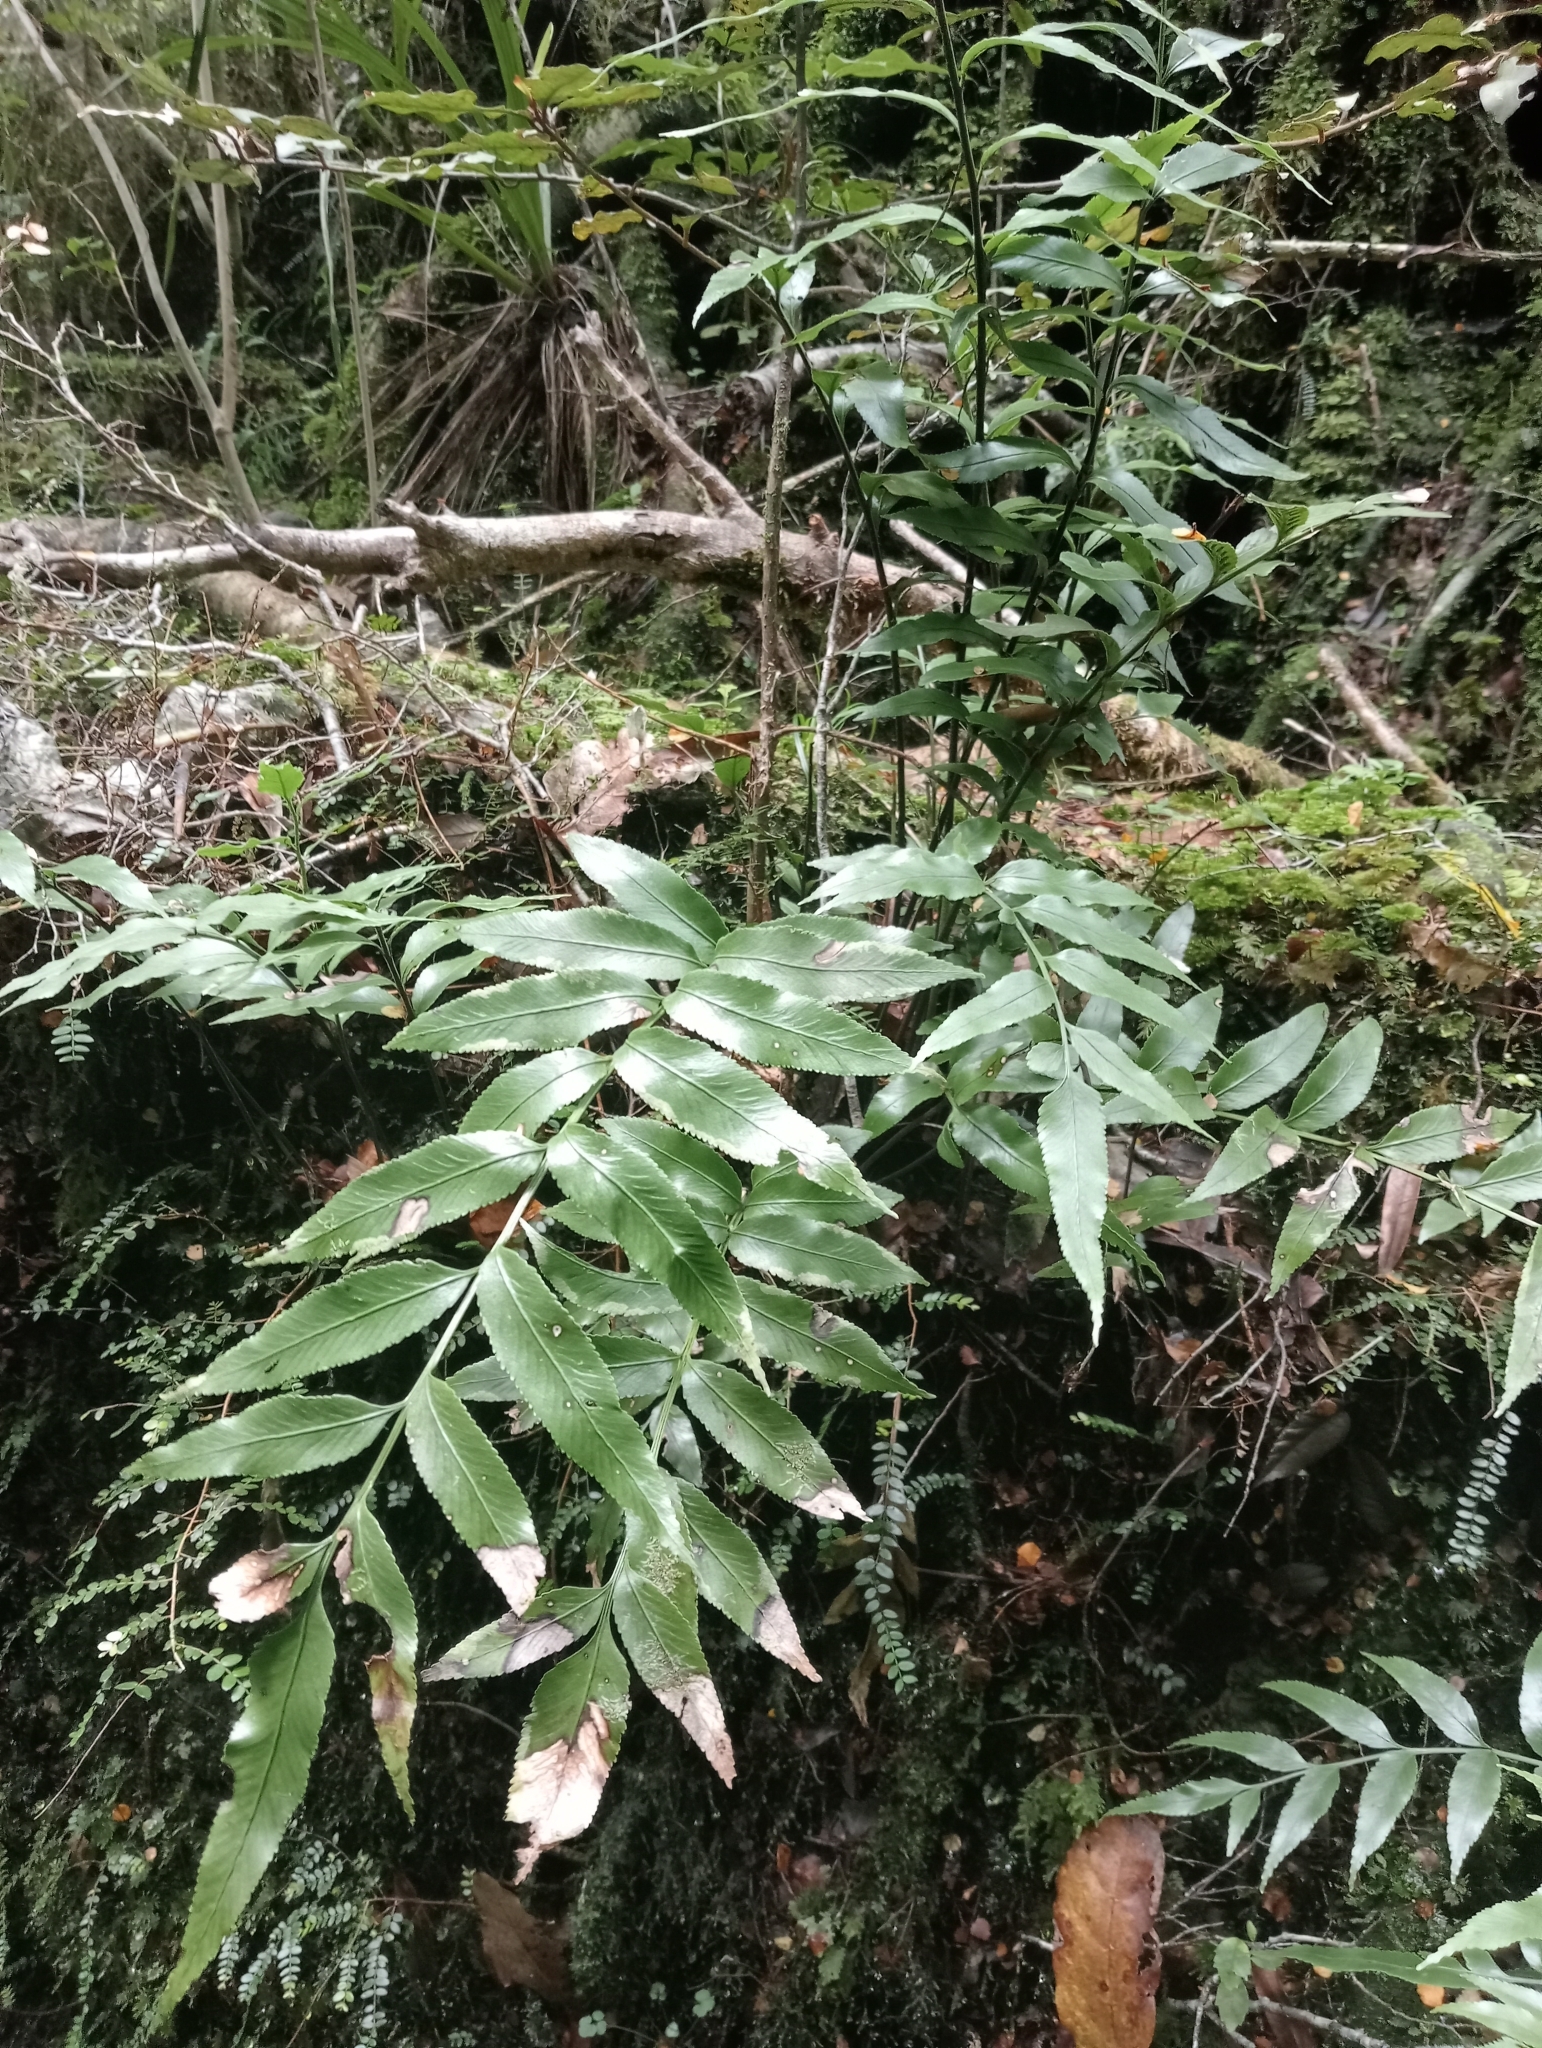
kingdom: Plantae
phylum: Tracheophyta
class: Polypodiopsida
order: Polypodiales
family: Aspleniaceae
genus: Asplenium
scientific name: Asplenium lepidotum
